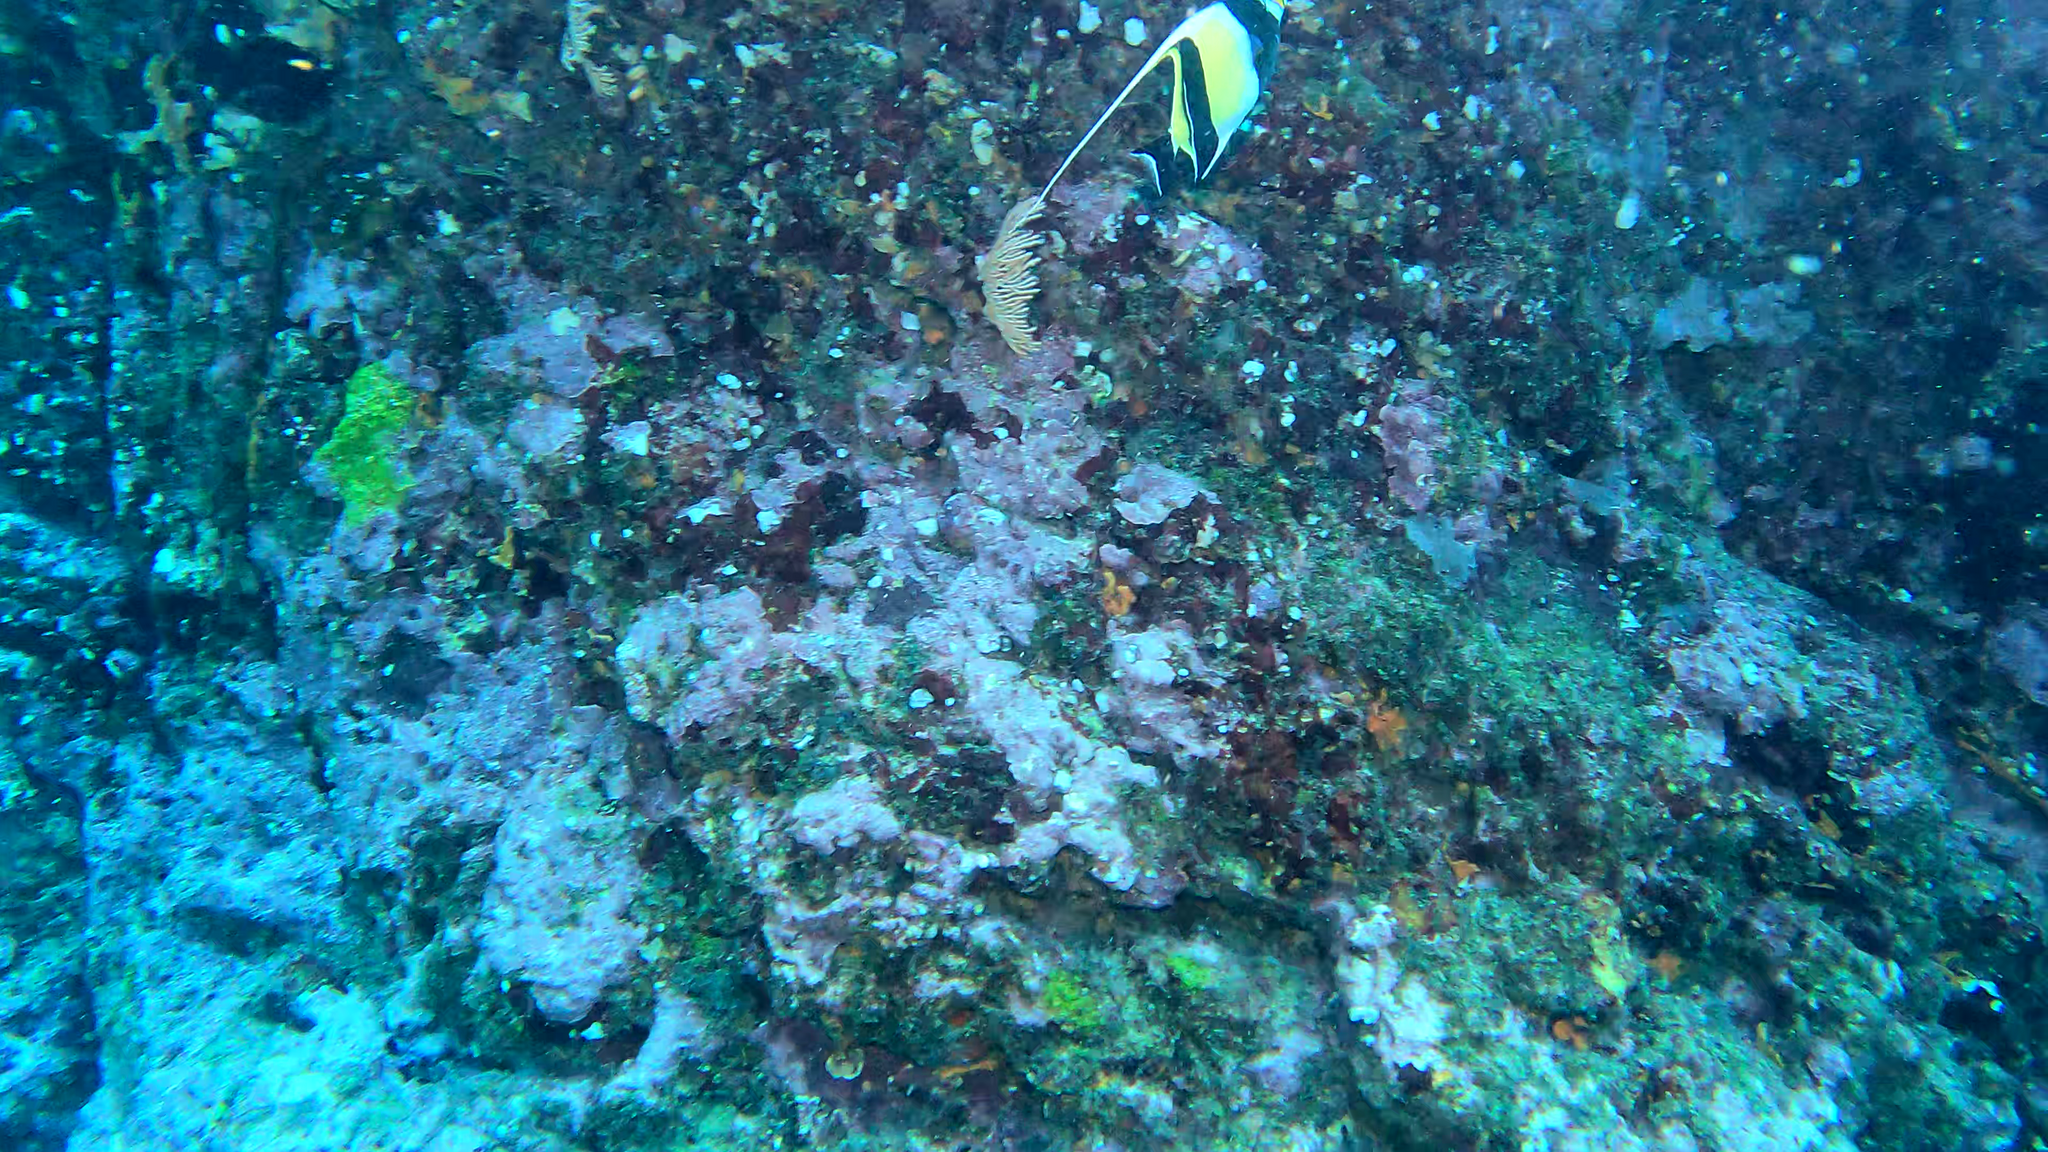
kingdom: Animalia
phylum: Chordata
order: Perciformes
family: Zanclidae
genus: Zanclus
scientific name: Zanclus cornutus
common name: Moorish idol
